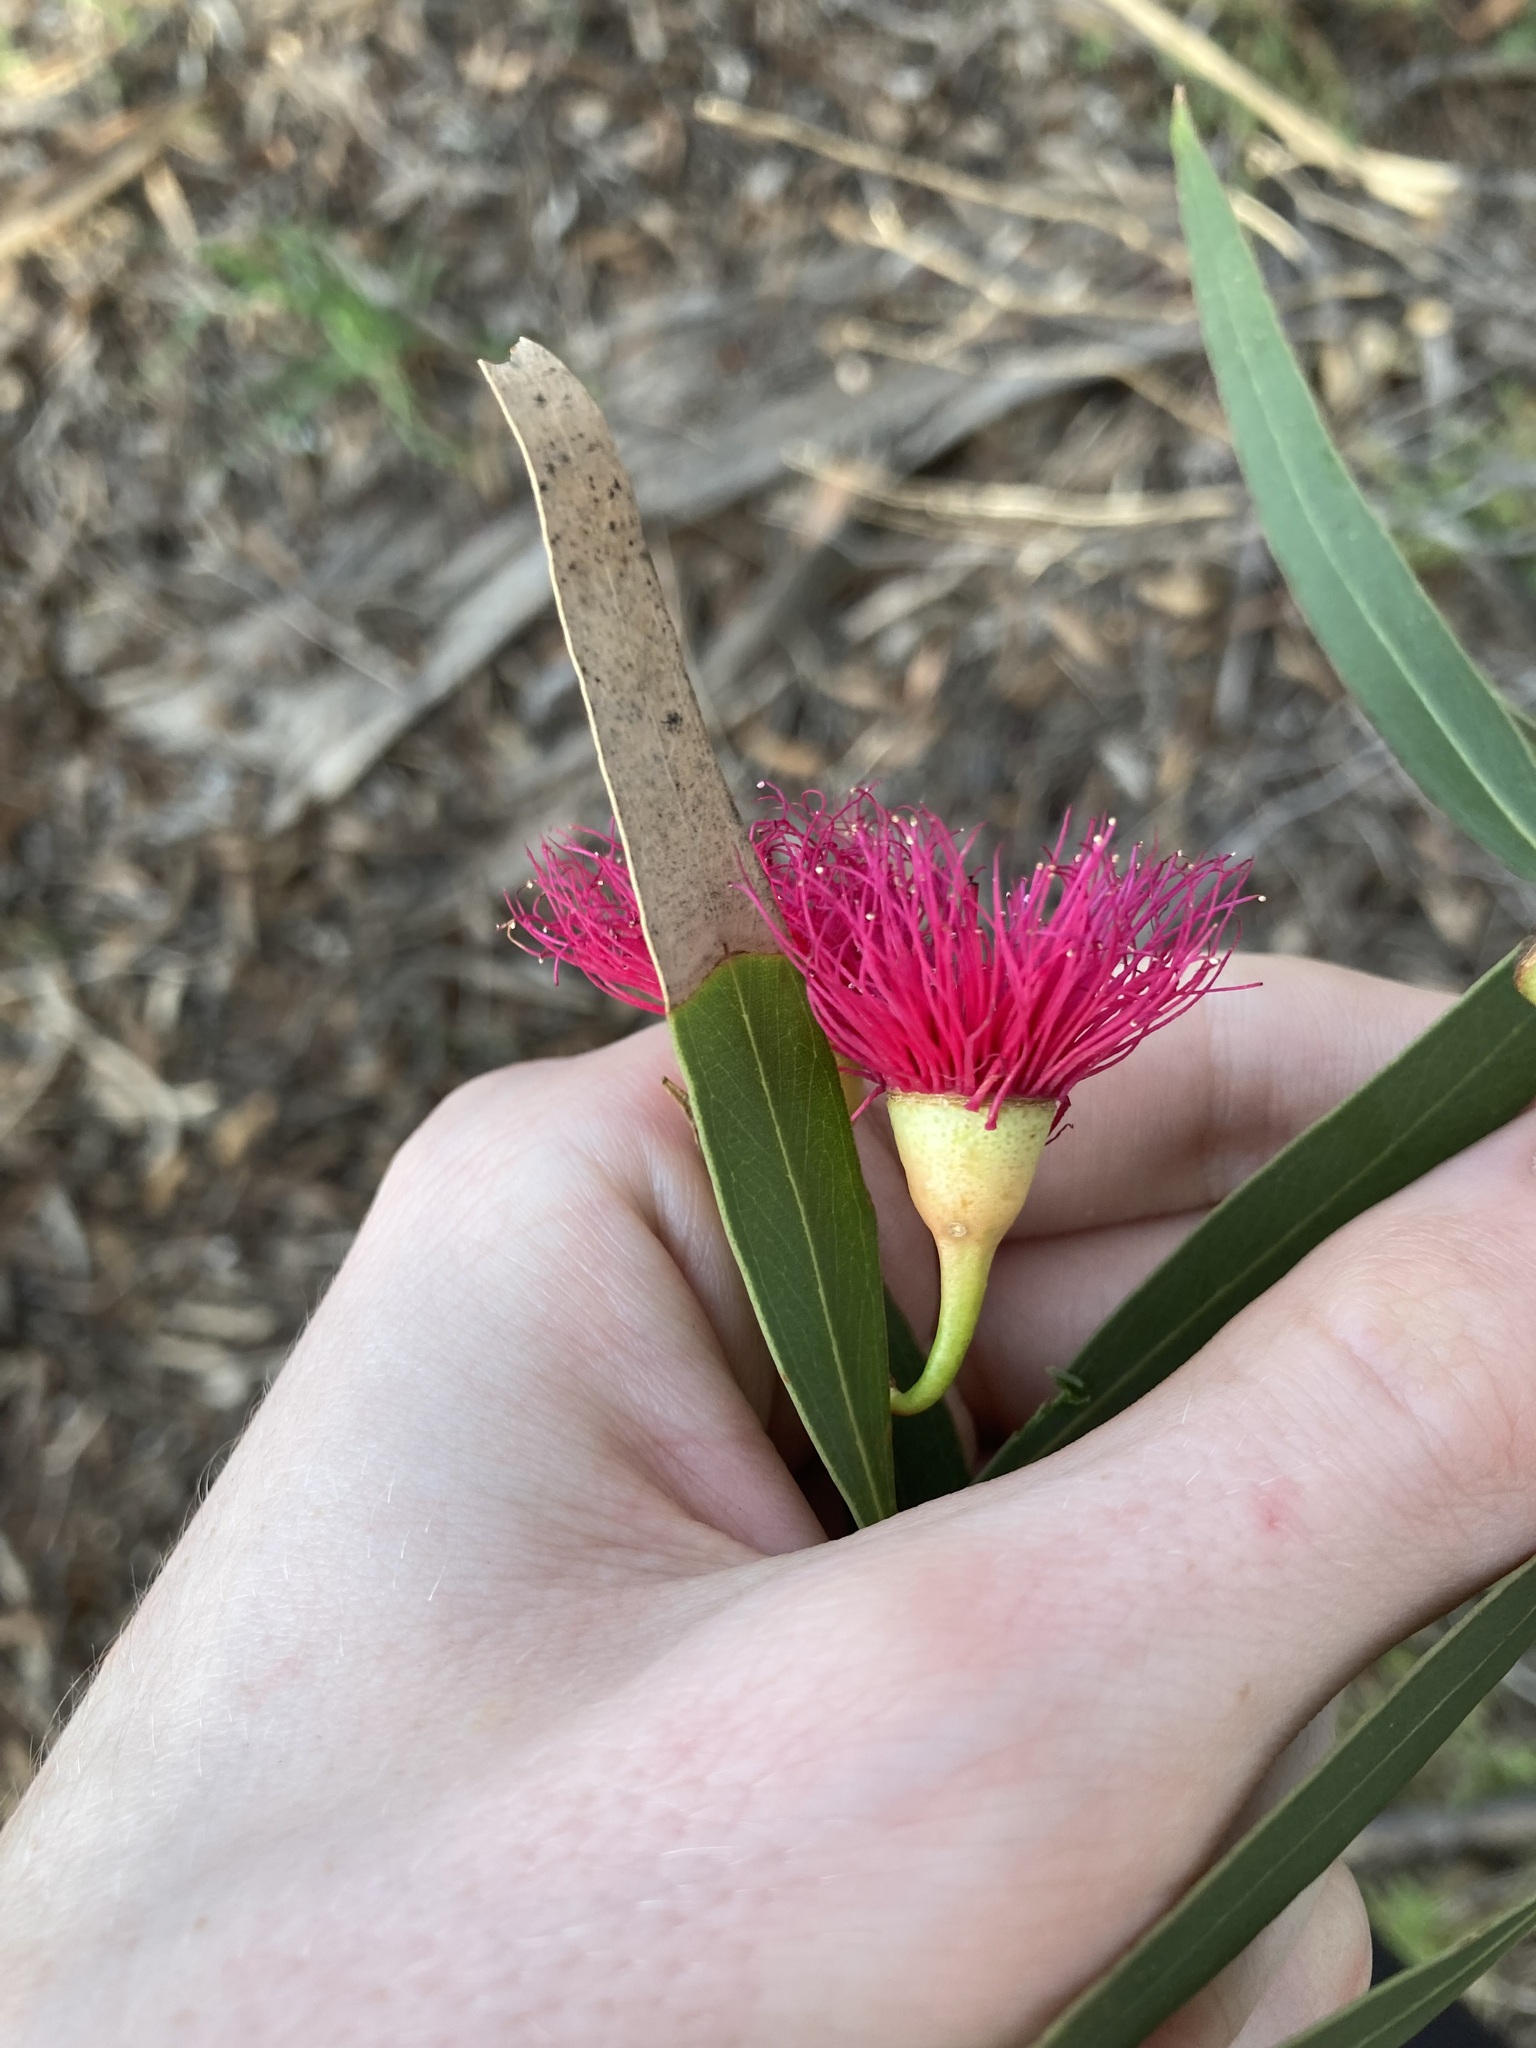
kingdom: Plantae
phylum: Tracheophyta
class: Magnoliopsida
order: Myrtales
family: Myrtaceae
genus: Eucalyptus
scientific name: Eucalyptus leucoxylon
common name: Blue gum
